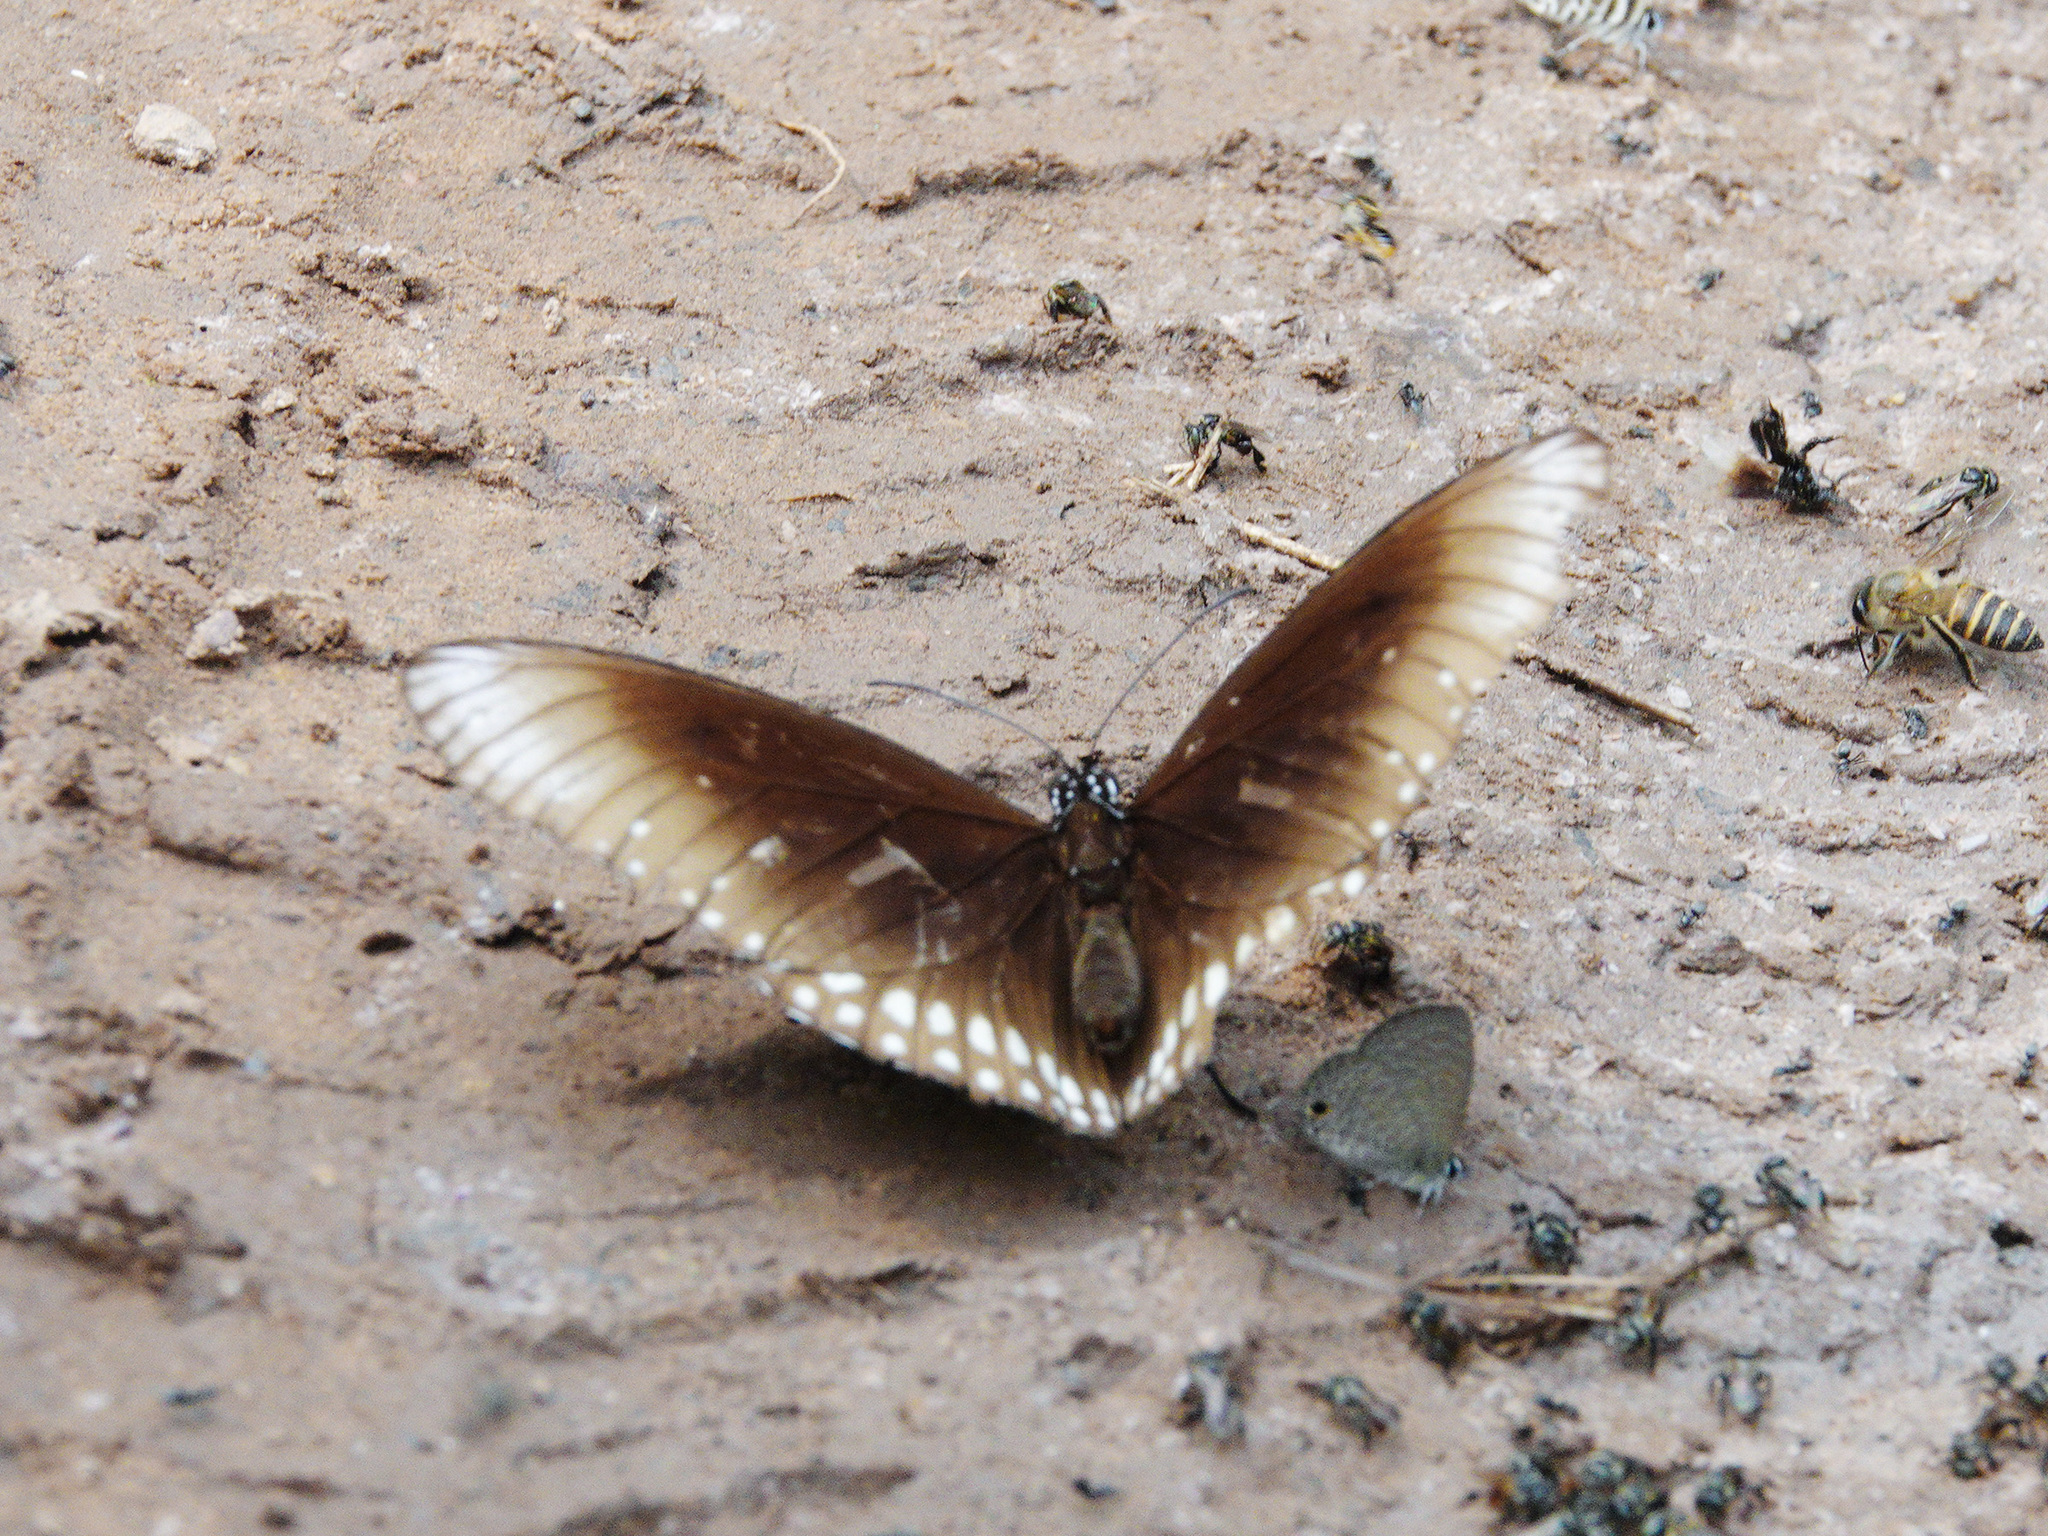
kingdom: Animalia
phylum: Arthropoda
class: Insecta
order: Lepidoptera
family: Nymphalidae
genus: Euploea
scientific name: Euploea core
